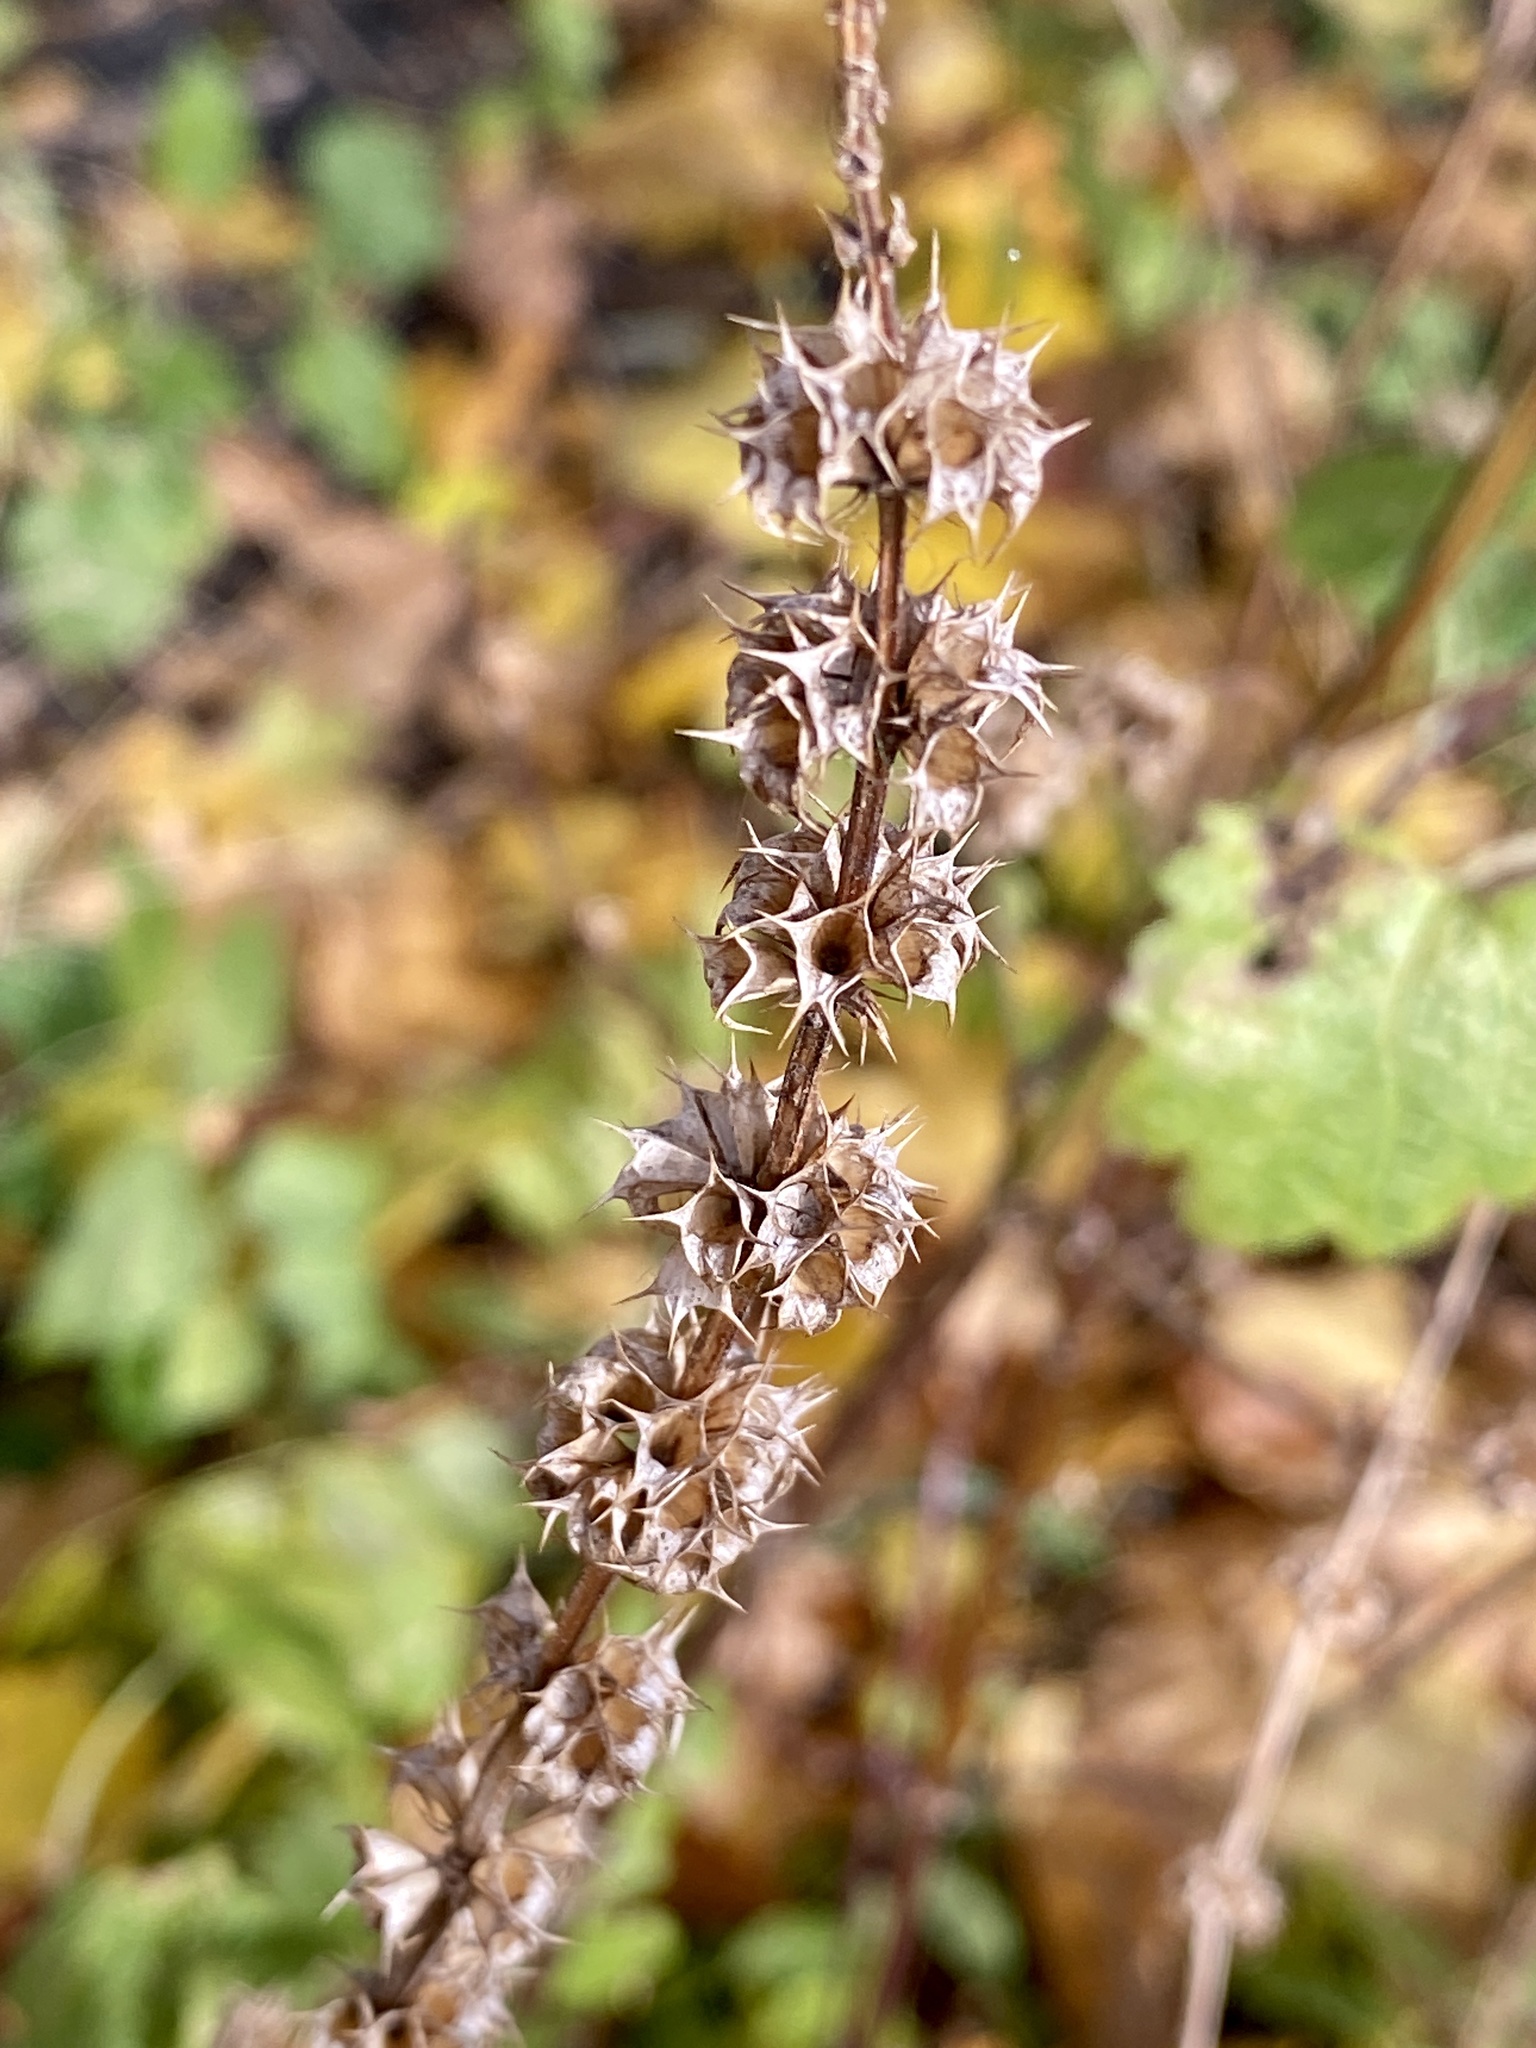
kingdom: Plantae
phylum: Tracheophyta
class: Magnoliopsida
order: Lamiales
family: Lamiaceae
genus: Leonurus
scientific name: Leonurus cardiaca
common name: Motherwort
